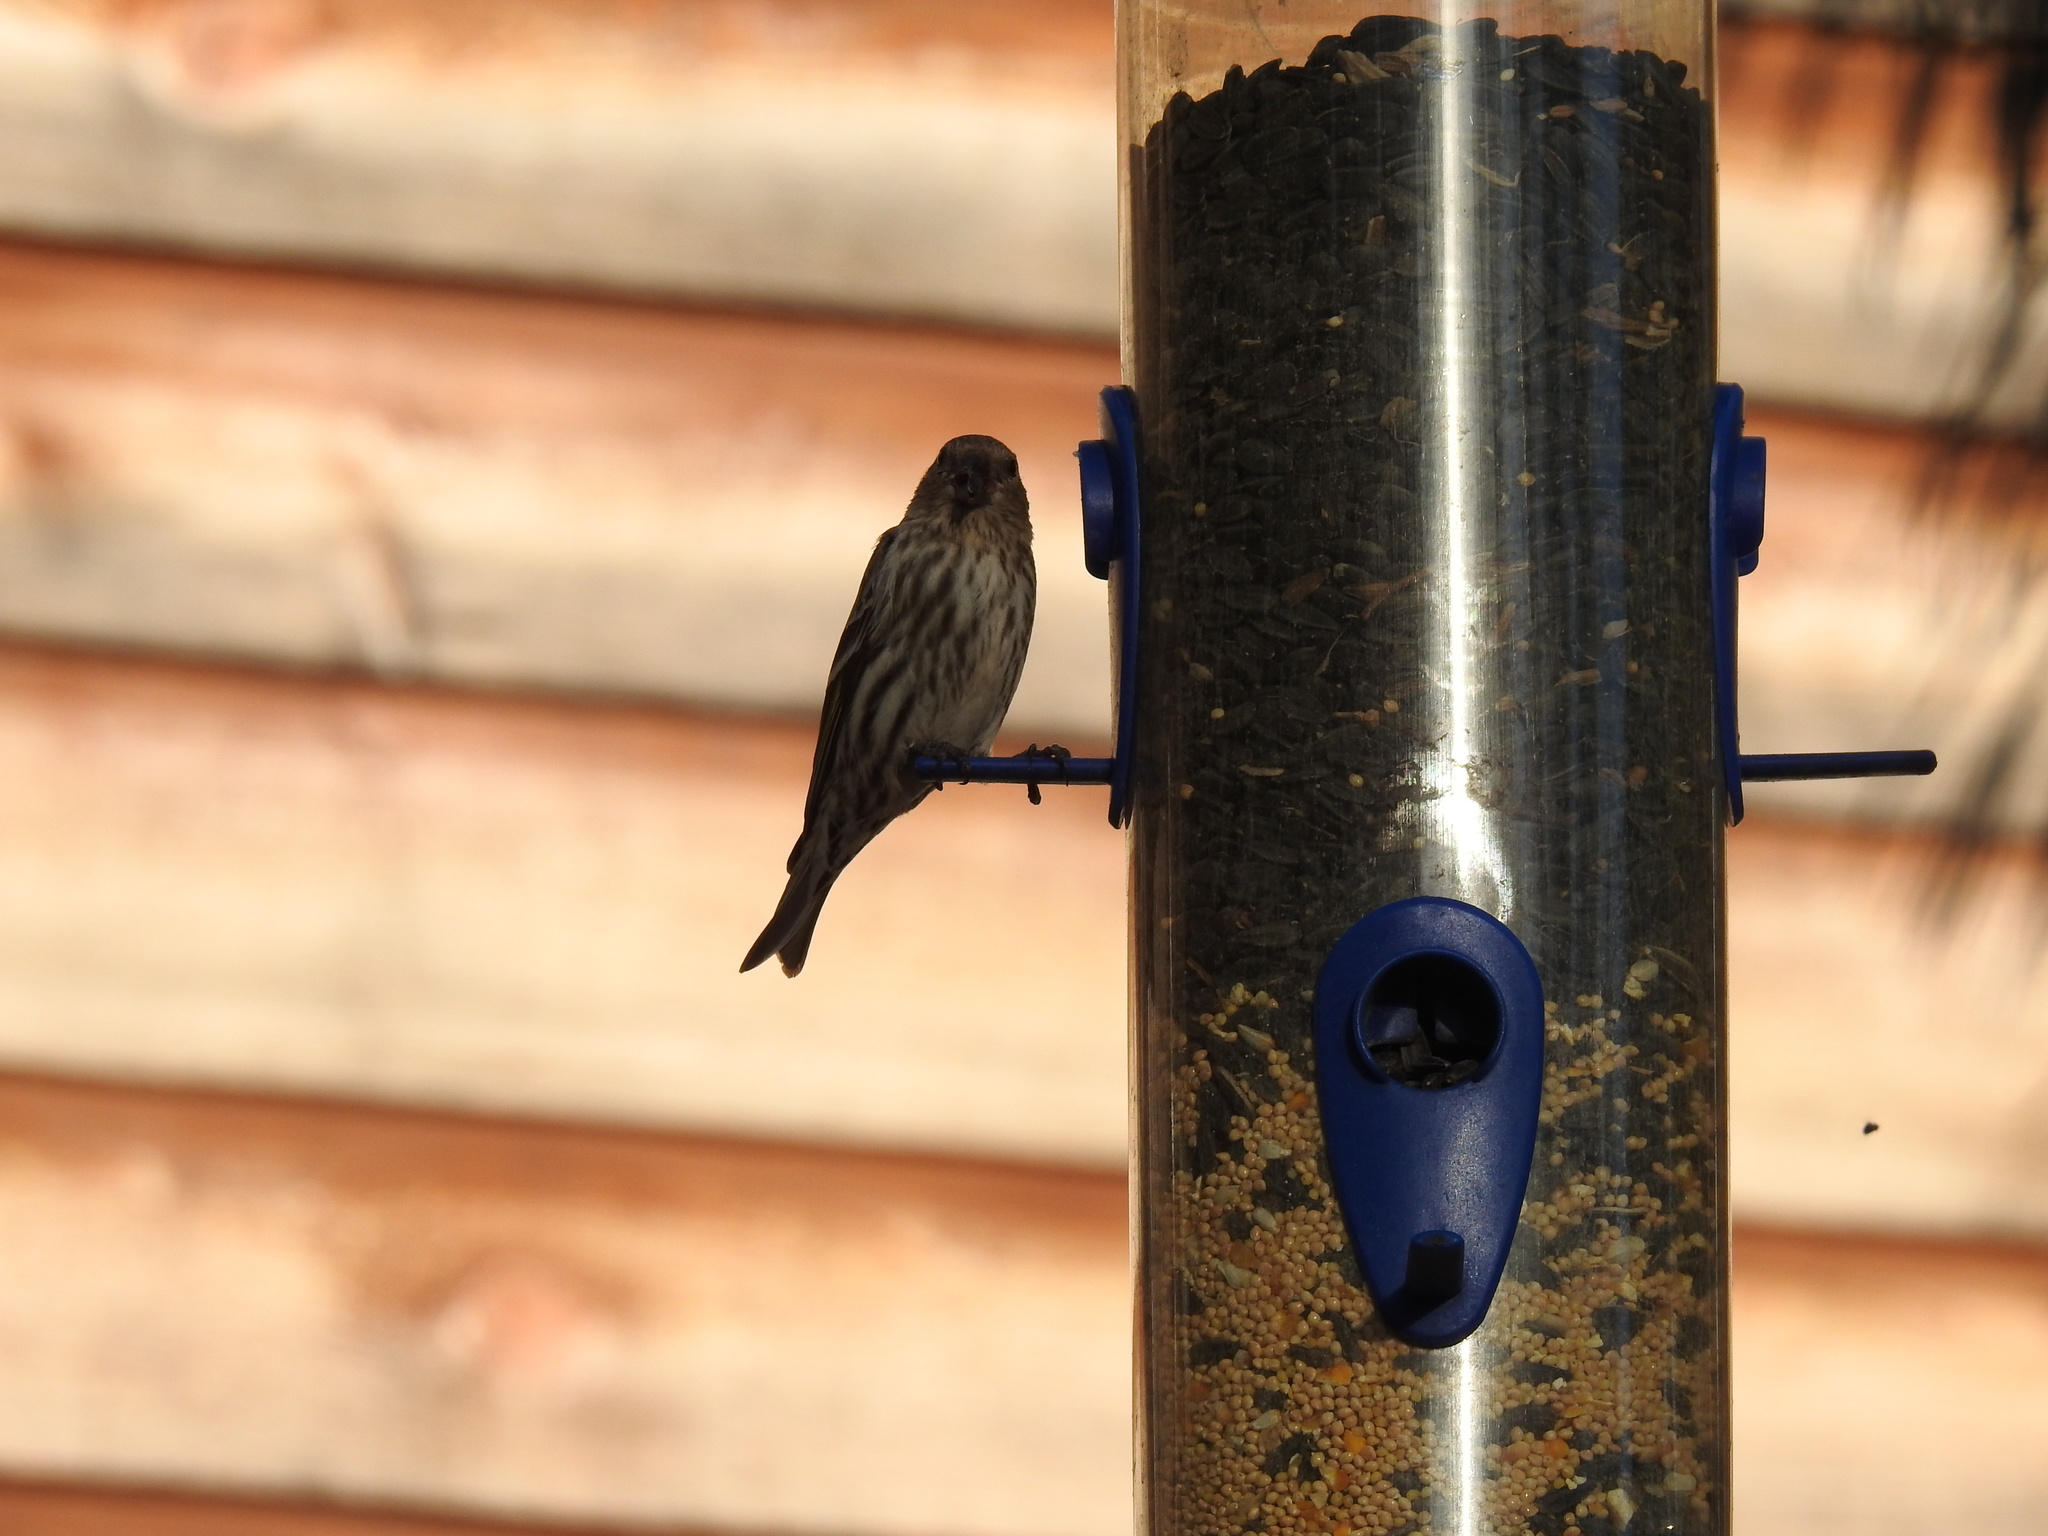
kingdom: Animalia
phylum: Chordata
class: Aves
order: Passeriformes
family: Fringillidae
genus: Spinus
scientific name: Spinus pinus
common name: Pine siskin
